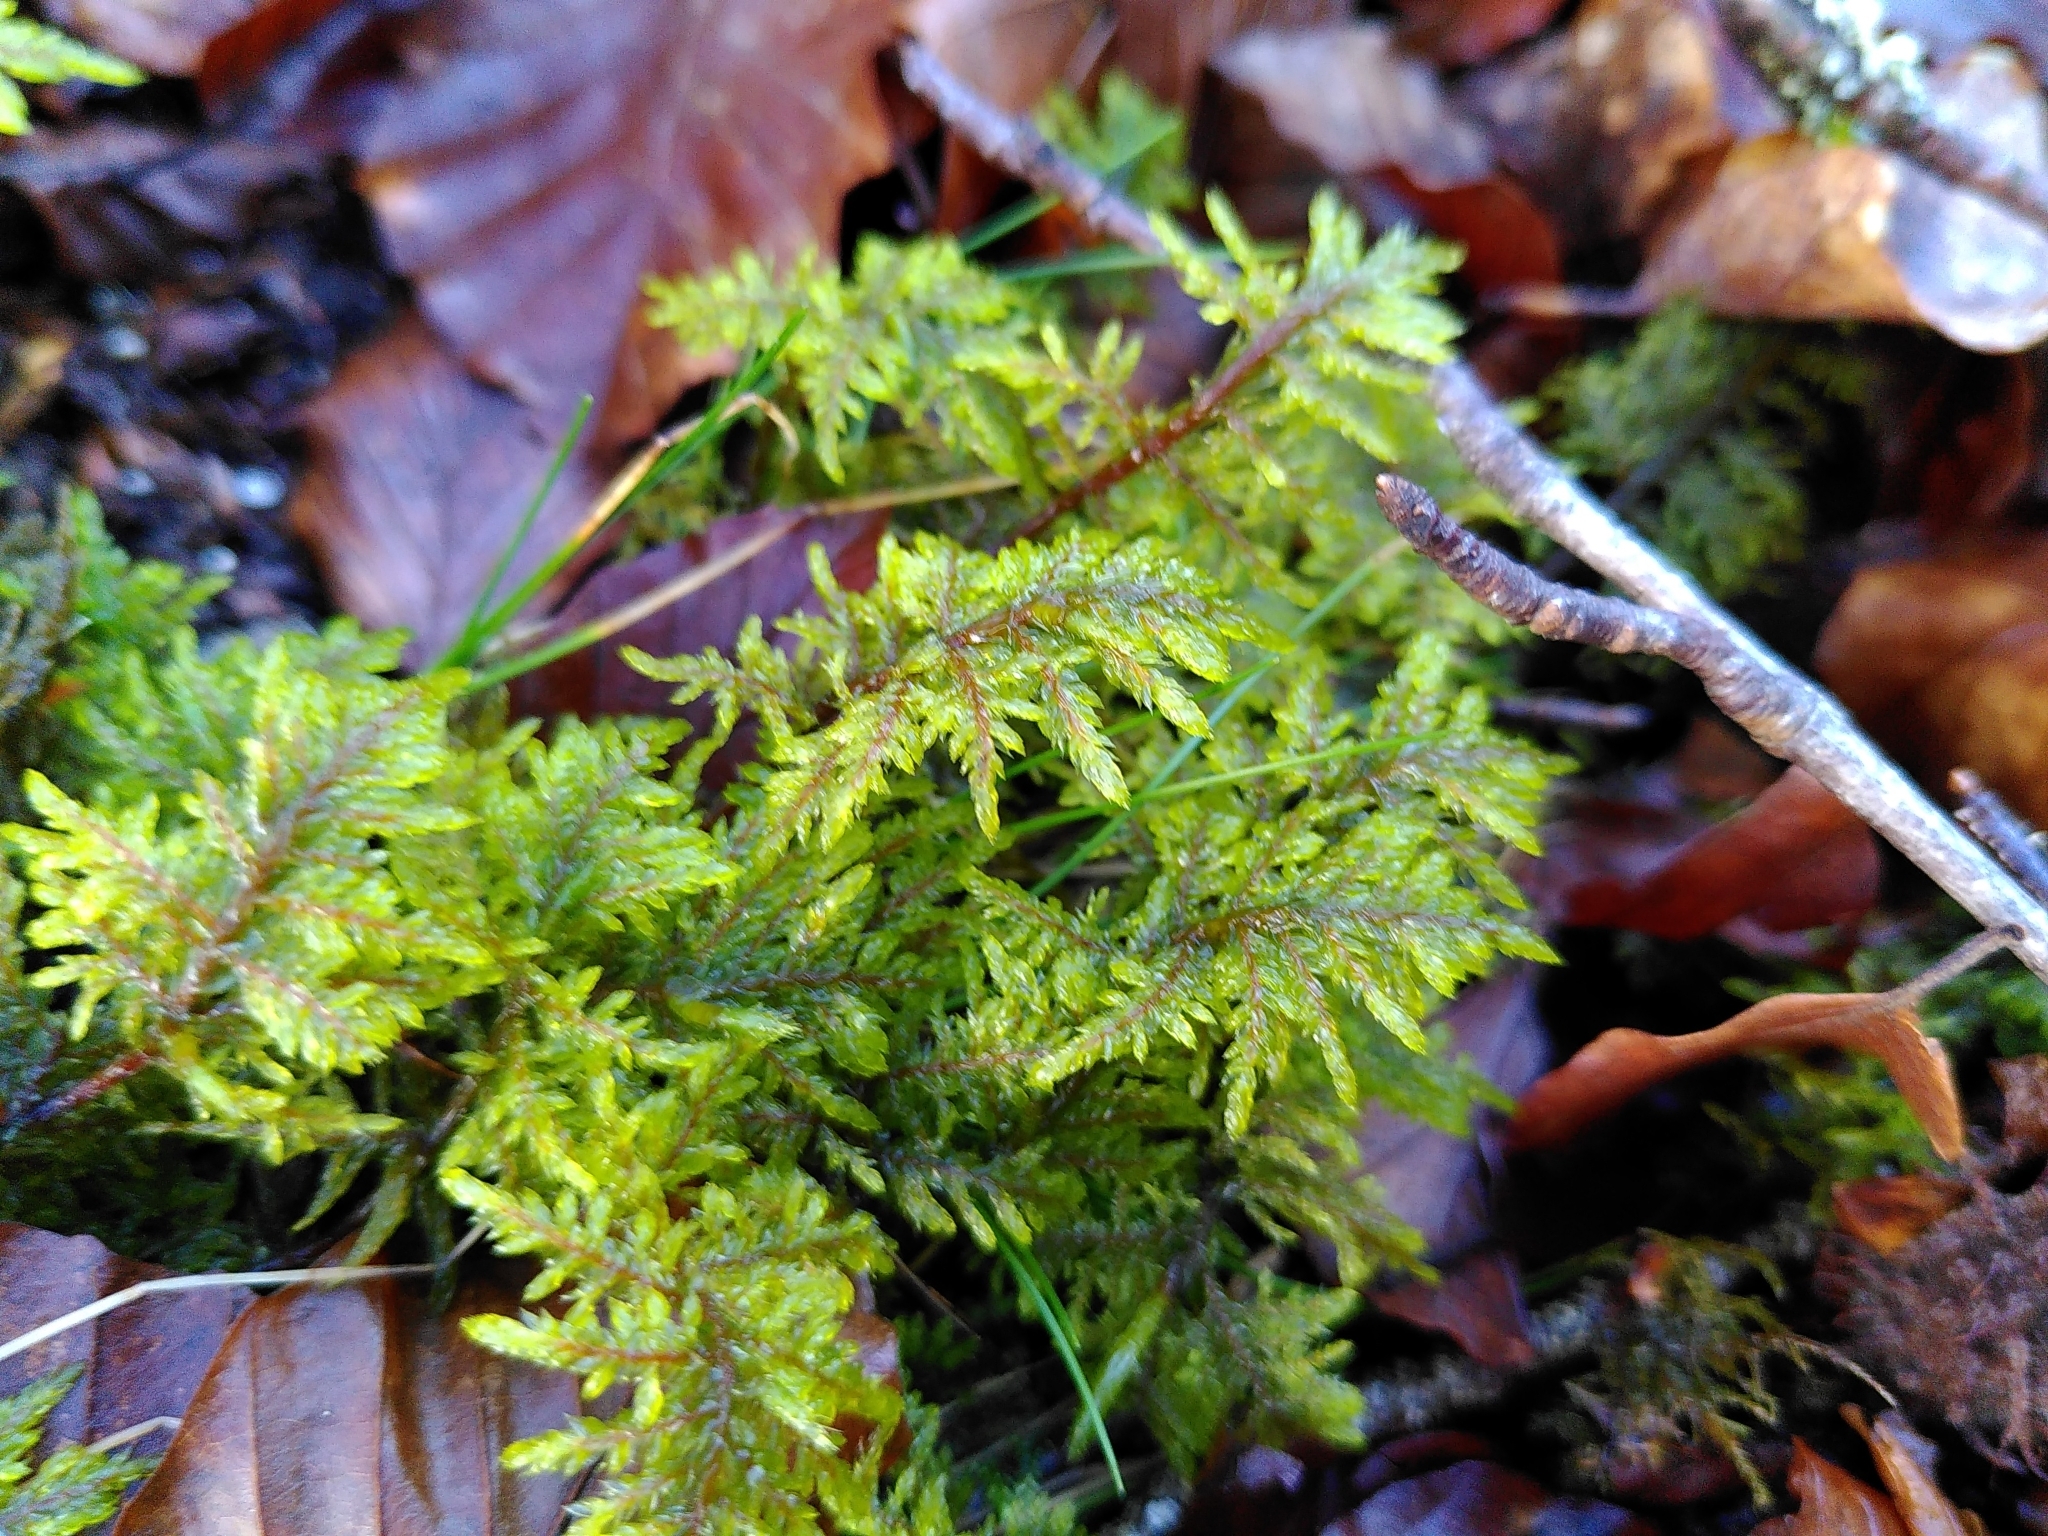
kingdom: Plantae
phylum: Bryophyta
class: Bryopsida
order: Hypnales
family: Hylocomiaceae
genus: Hylocomium
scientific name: Hylocomium splendens
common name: Stairstep moss
